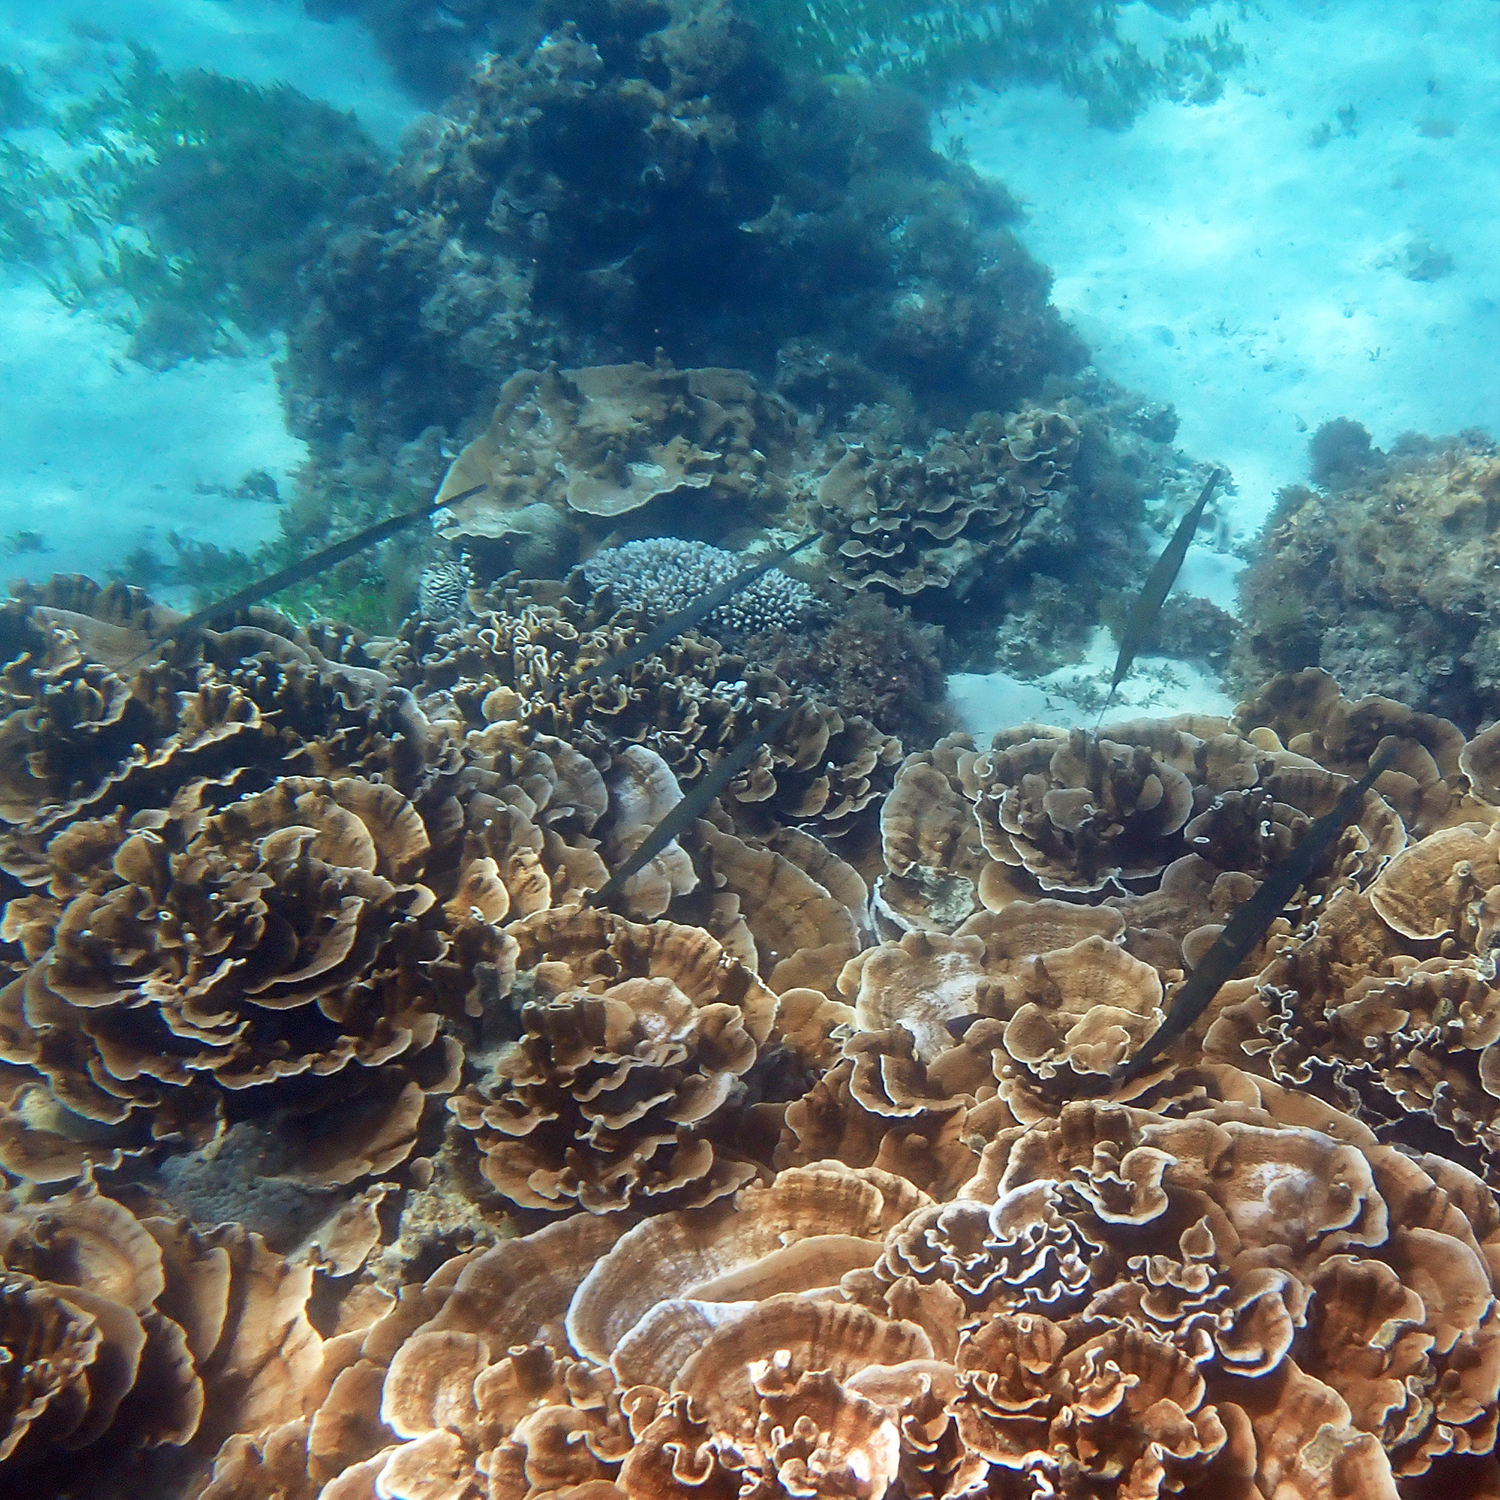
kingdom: Animalia
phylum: Chordata
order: Syngnathiformes
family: Fistulariidae
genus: Fistularia
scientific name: Fistularia commersonii
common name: Bluespotted cornetfish
